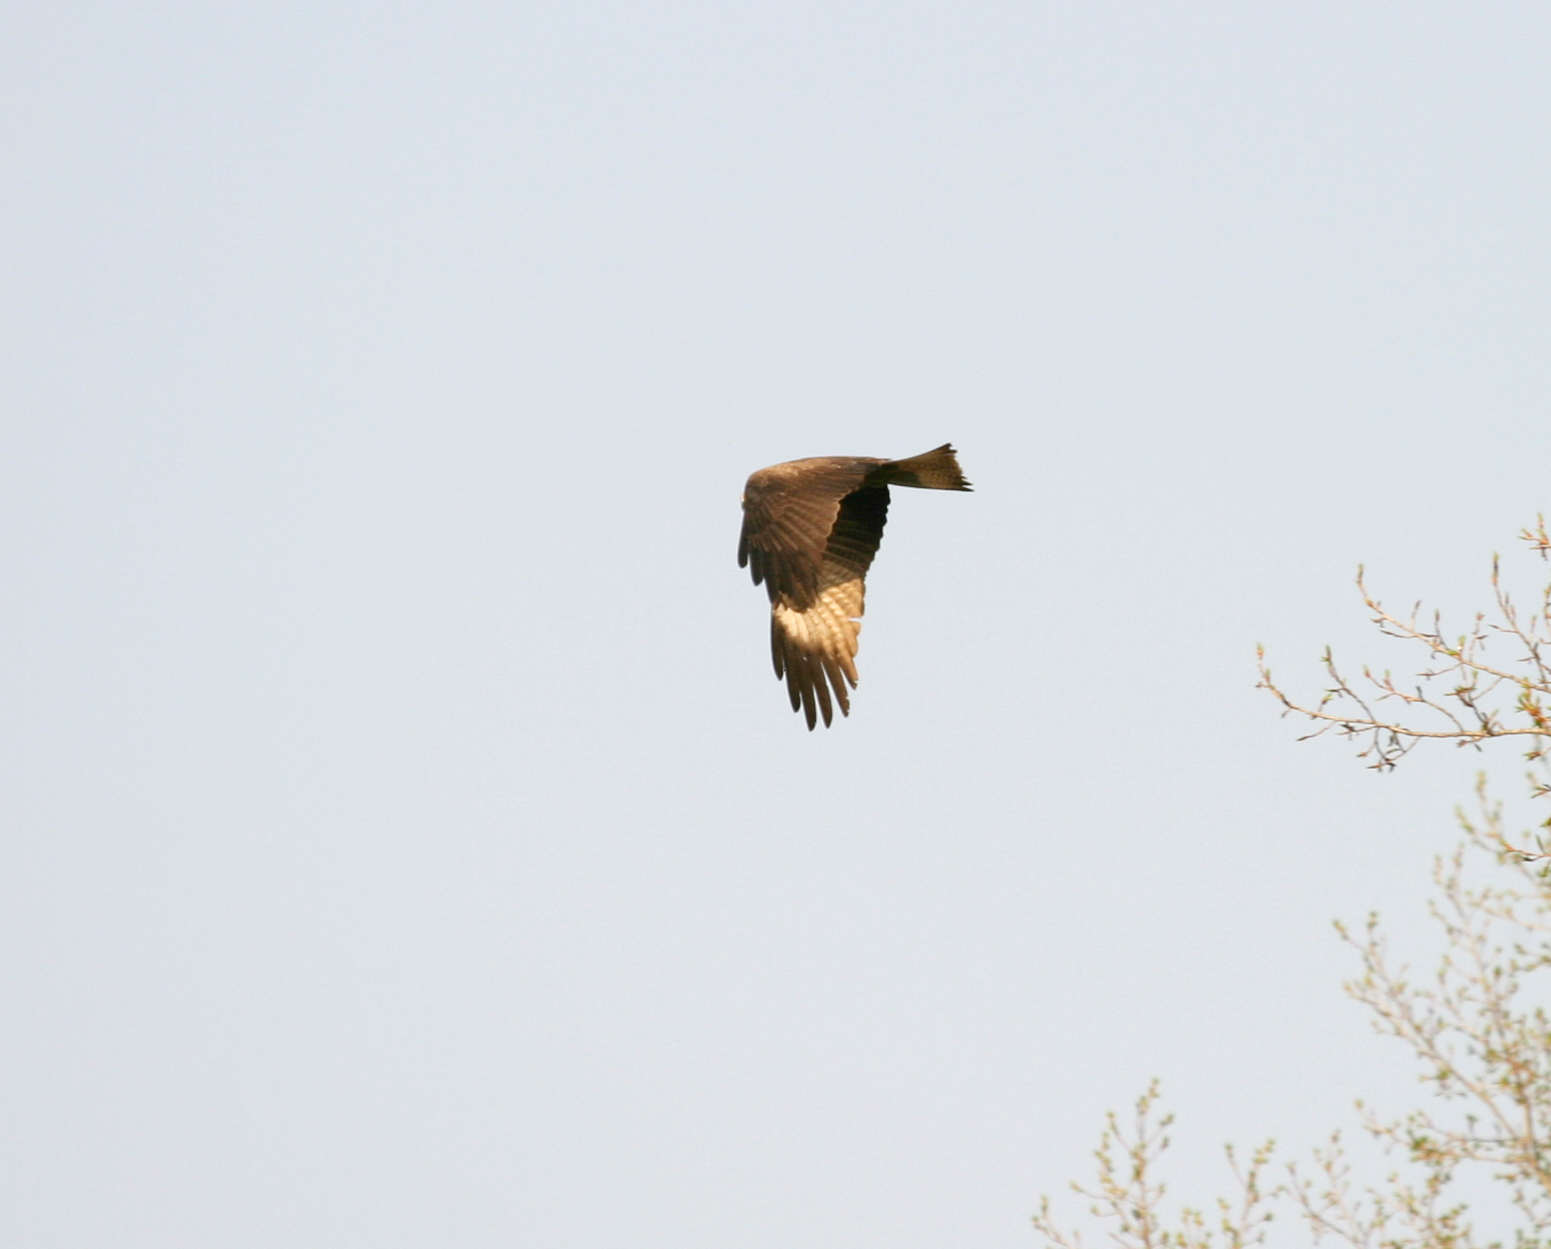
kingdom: Animalia
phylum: Chordata
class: Aves
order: Accipitriformes
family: Accipitridae
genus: Milvus
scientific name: Milvus migrans
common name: Black kite
